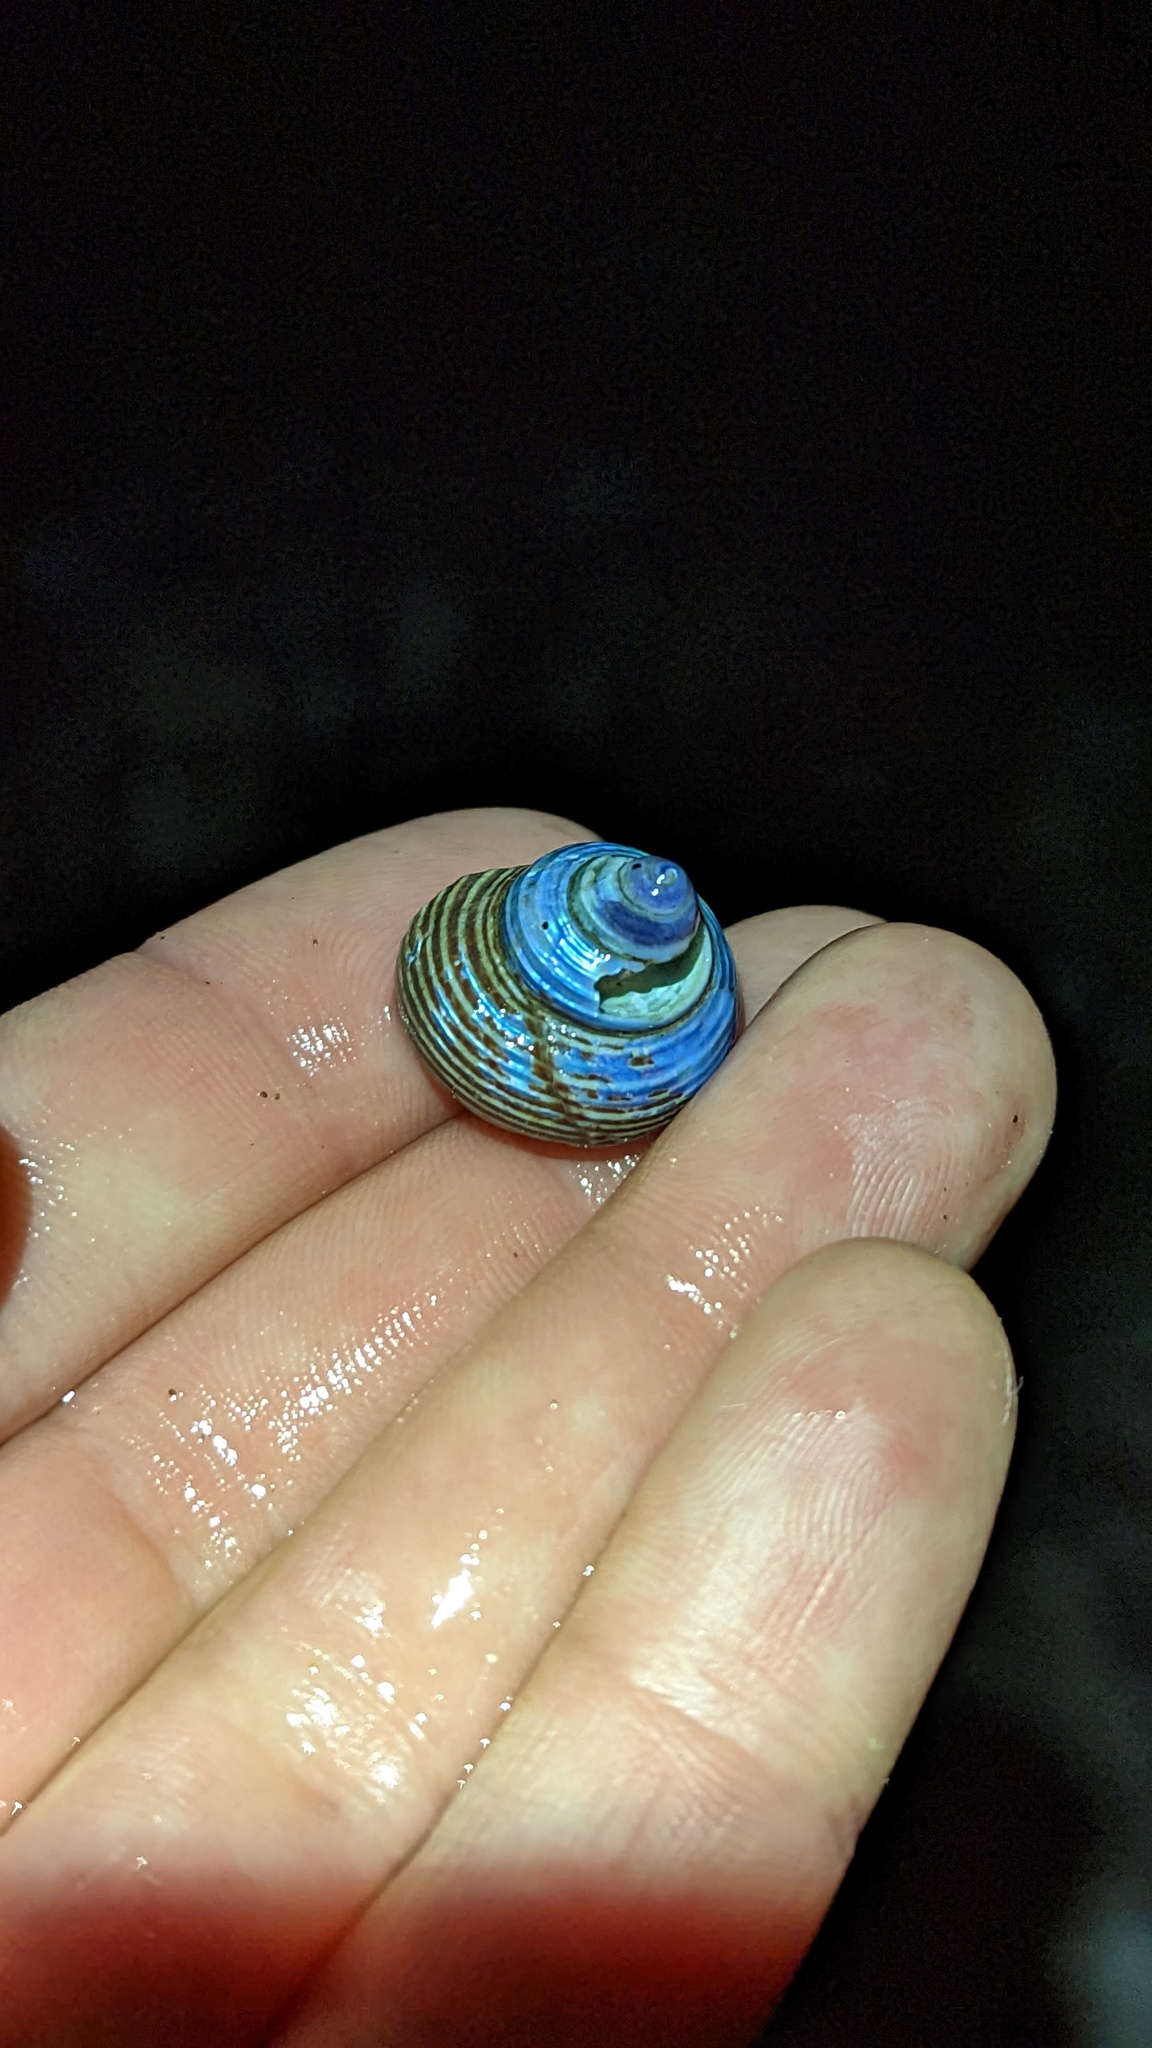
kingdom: Animalia
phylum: Mollusca
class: Gastropoda
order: Trochida
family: Calliostomatidae
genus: Calliostoma
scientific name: Calliostoma ligatum
